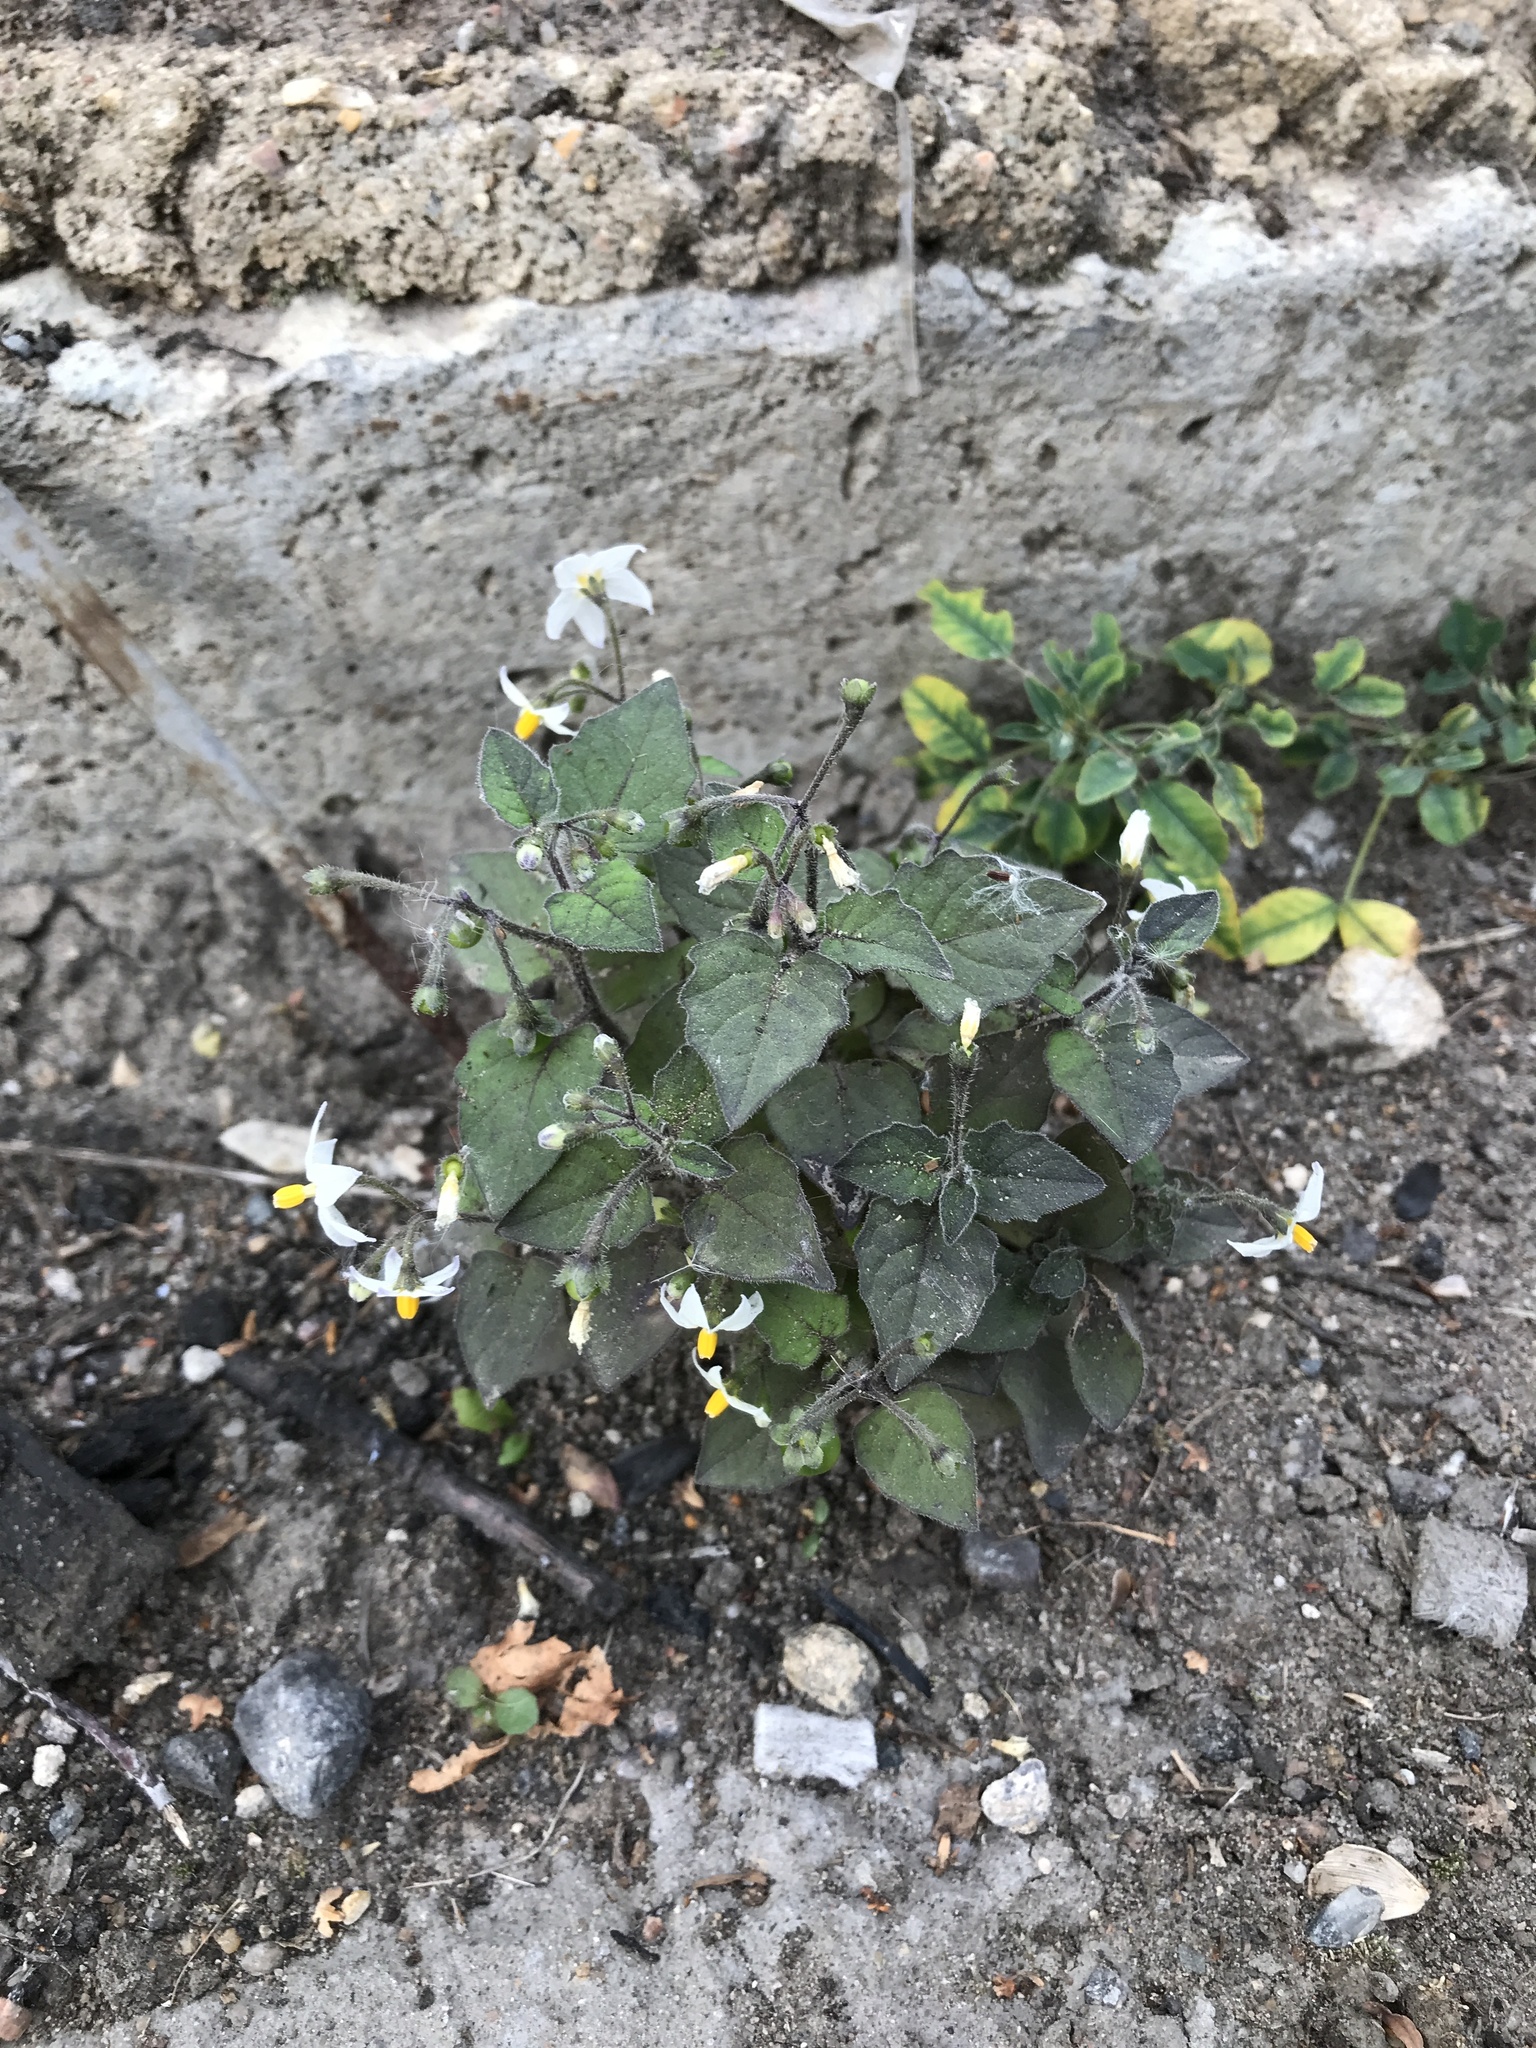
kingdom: Plantae
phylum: Tracheophyta
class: Magnoliopsida
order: Solanales
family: Solanaceae
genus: Solanum
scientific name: Solanum nigrum
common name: Black nightshade
